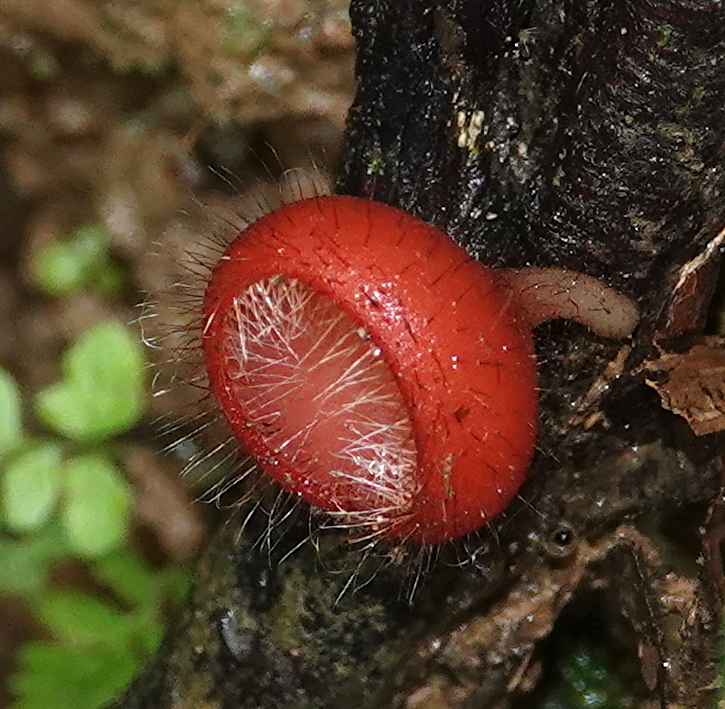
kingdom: Fungi
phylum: Ascomycota
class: Pezizomycetes
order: Pezizales
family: Sarcoscyphaceae
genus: Cookeina
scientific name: Cookeina tricholoma
